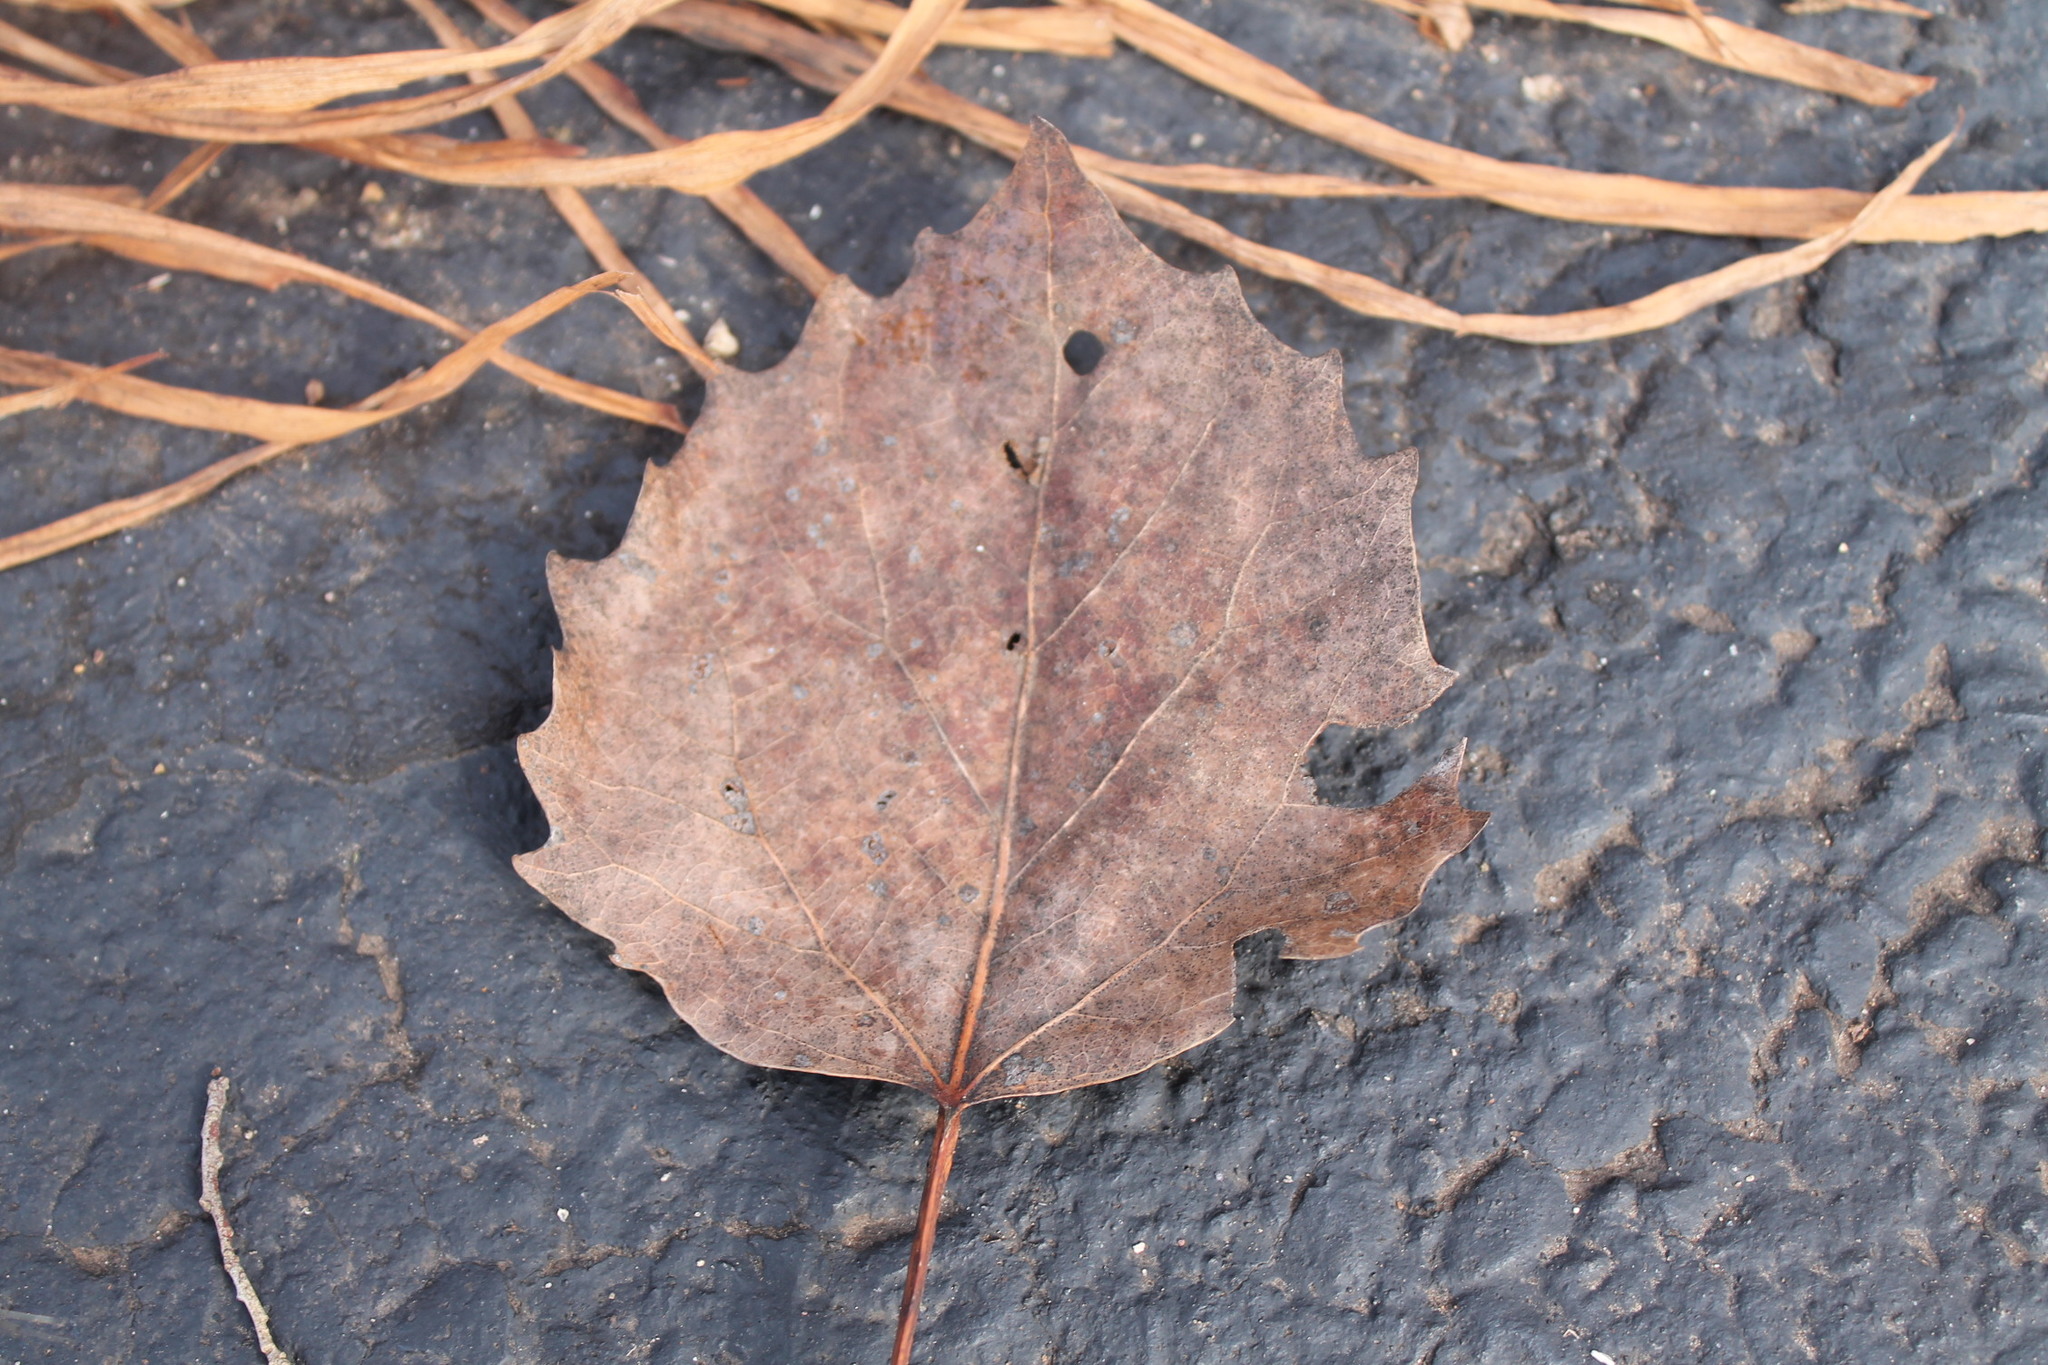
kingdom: Plantae
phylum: Tracheophyta
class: Magnoliopsida
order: Malpighiales
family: Salicaceae
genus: Populus
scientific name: Populus grandidentata
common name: Bigtooth aspen
